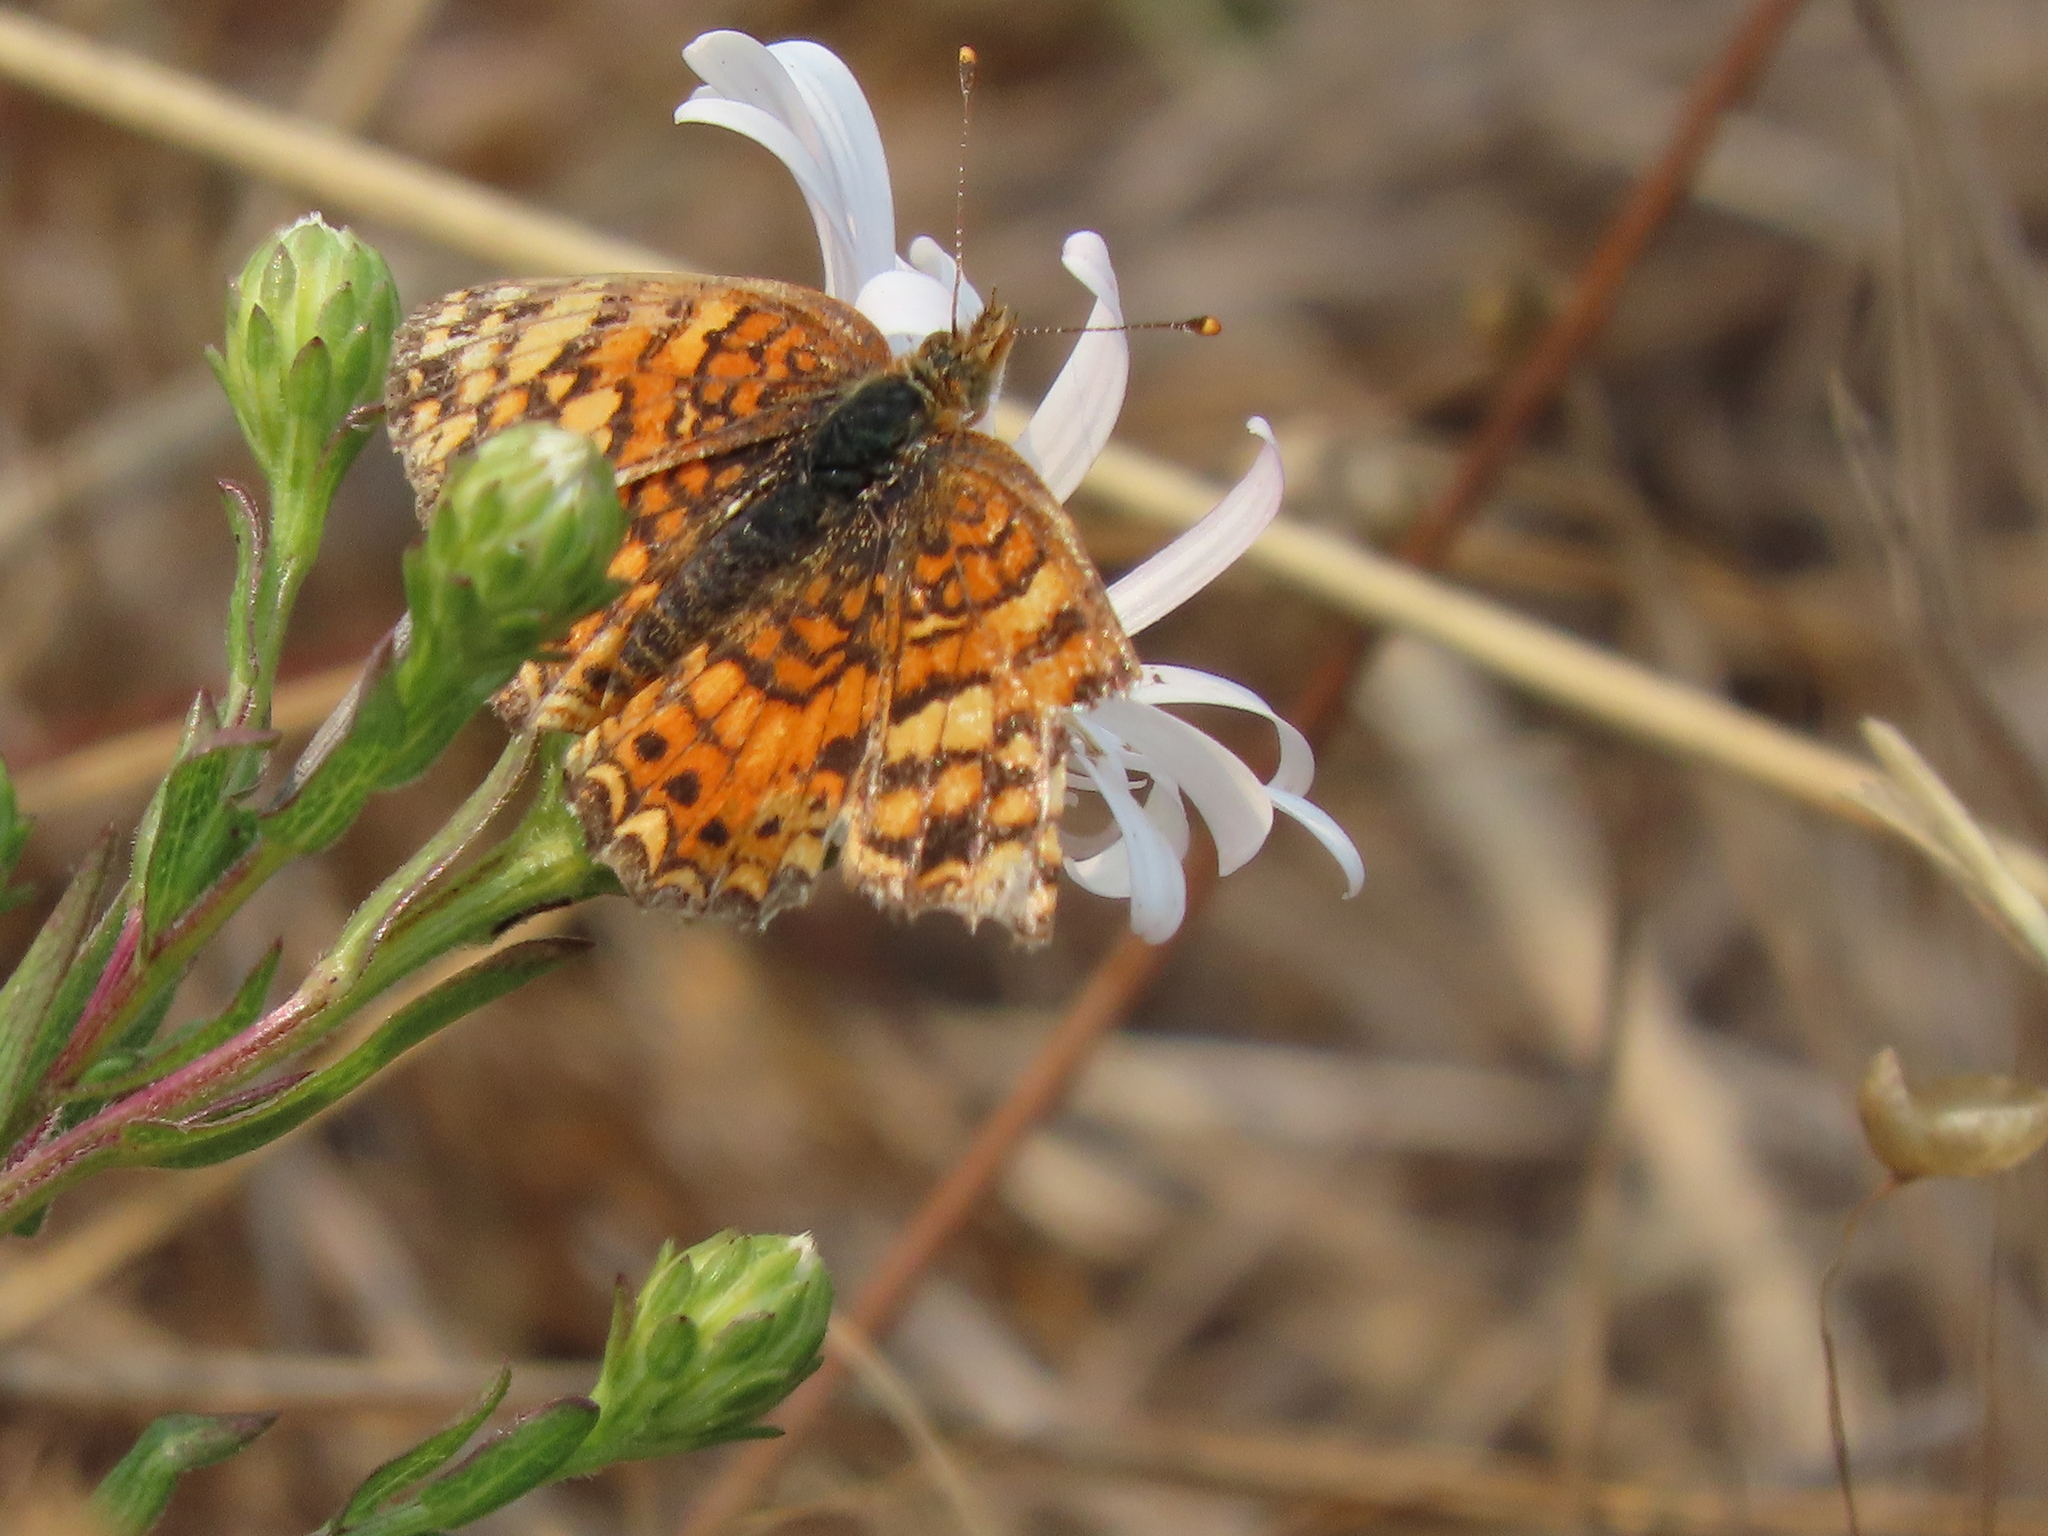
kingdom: Animalia
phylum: Arthropoda
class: Insecta
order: Lepidoptera
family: Nymphalidae
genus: Eresia
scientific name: Eresia aveyrona
